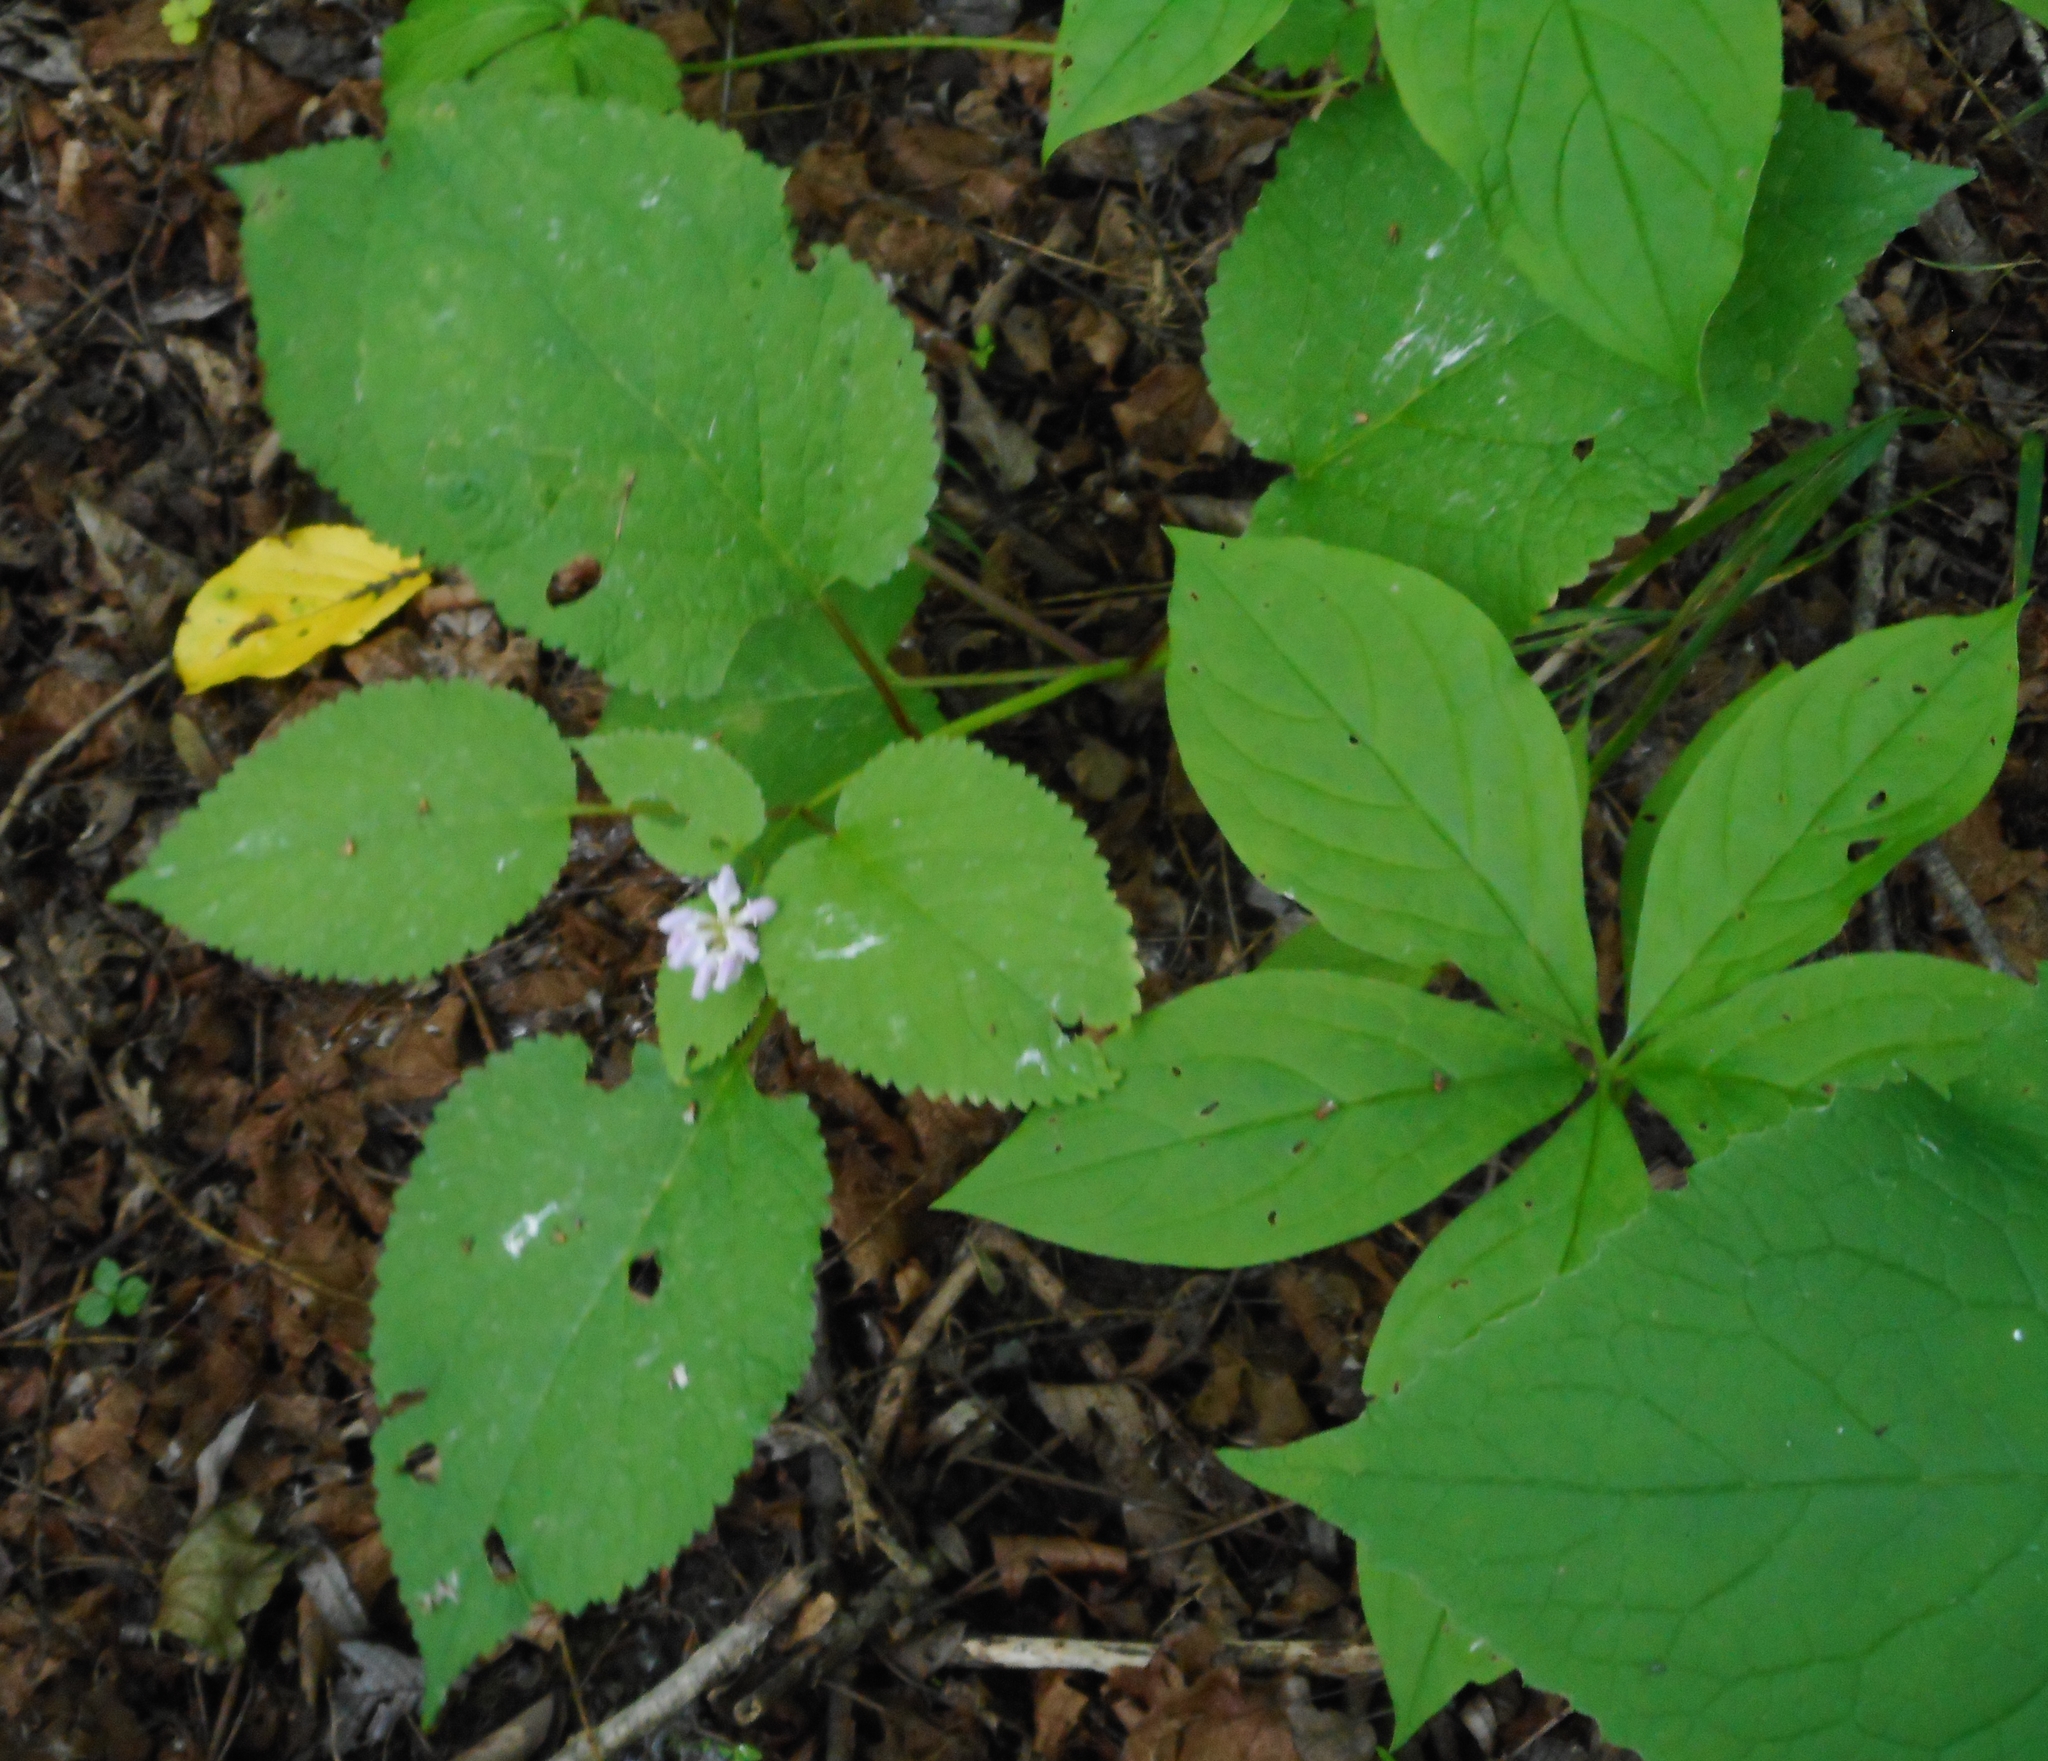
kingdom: Plantae
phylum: Tracheophyta
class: Magnoliopsida
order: Lamiales
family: Lamiaceae
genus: Phlomoides
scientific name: Phlomoides maximowiczii
